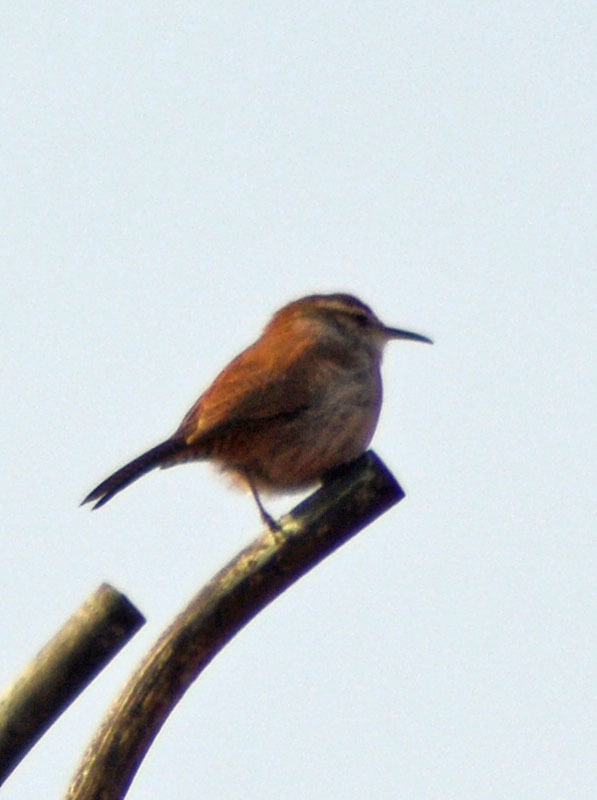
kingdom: Animalia
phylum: Chordata
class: Aves
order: Passeriformes
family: Troglodytidae
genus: Thryomanes
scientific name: Thryomanes bewickii
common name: Bewick's wren
